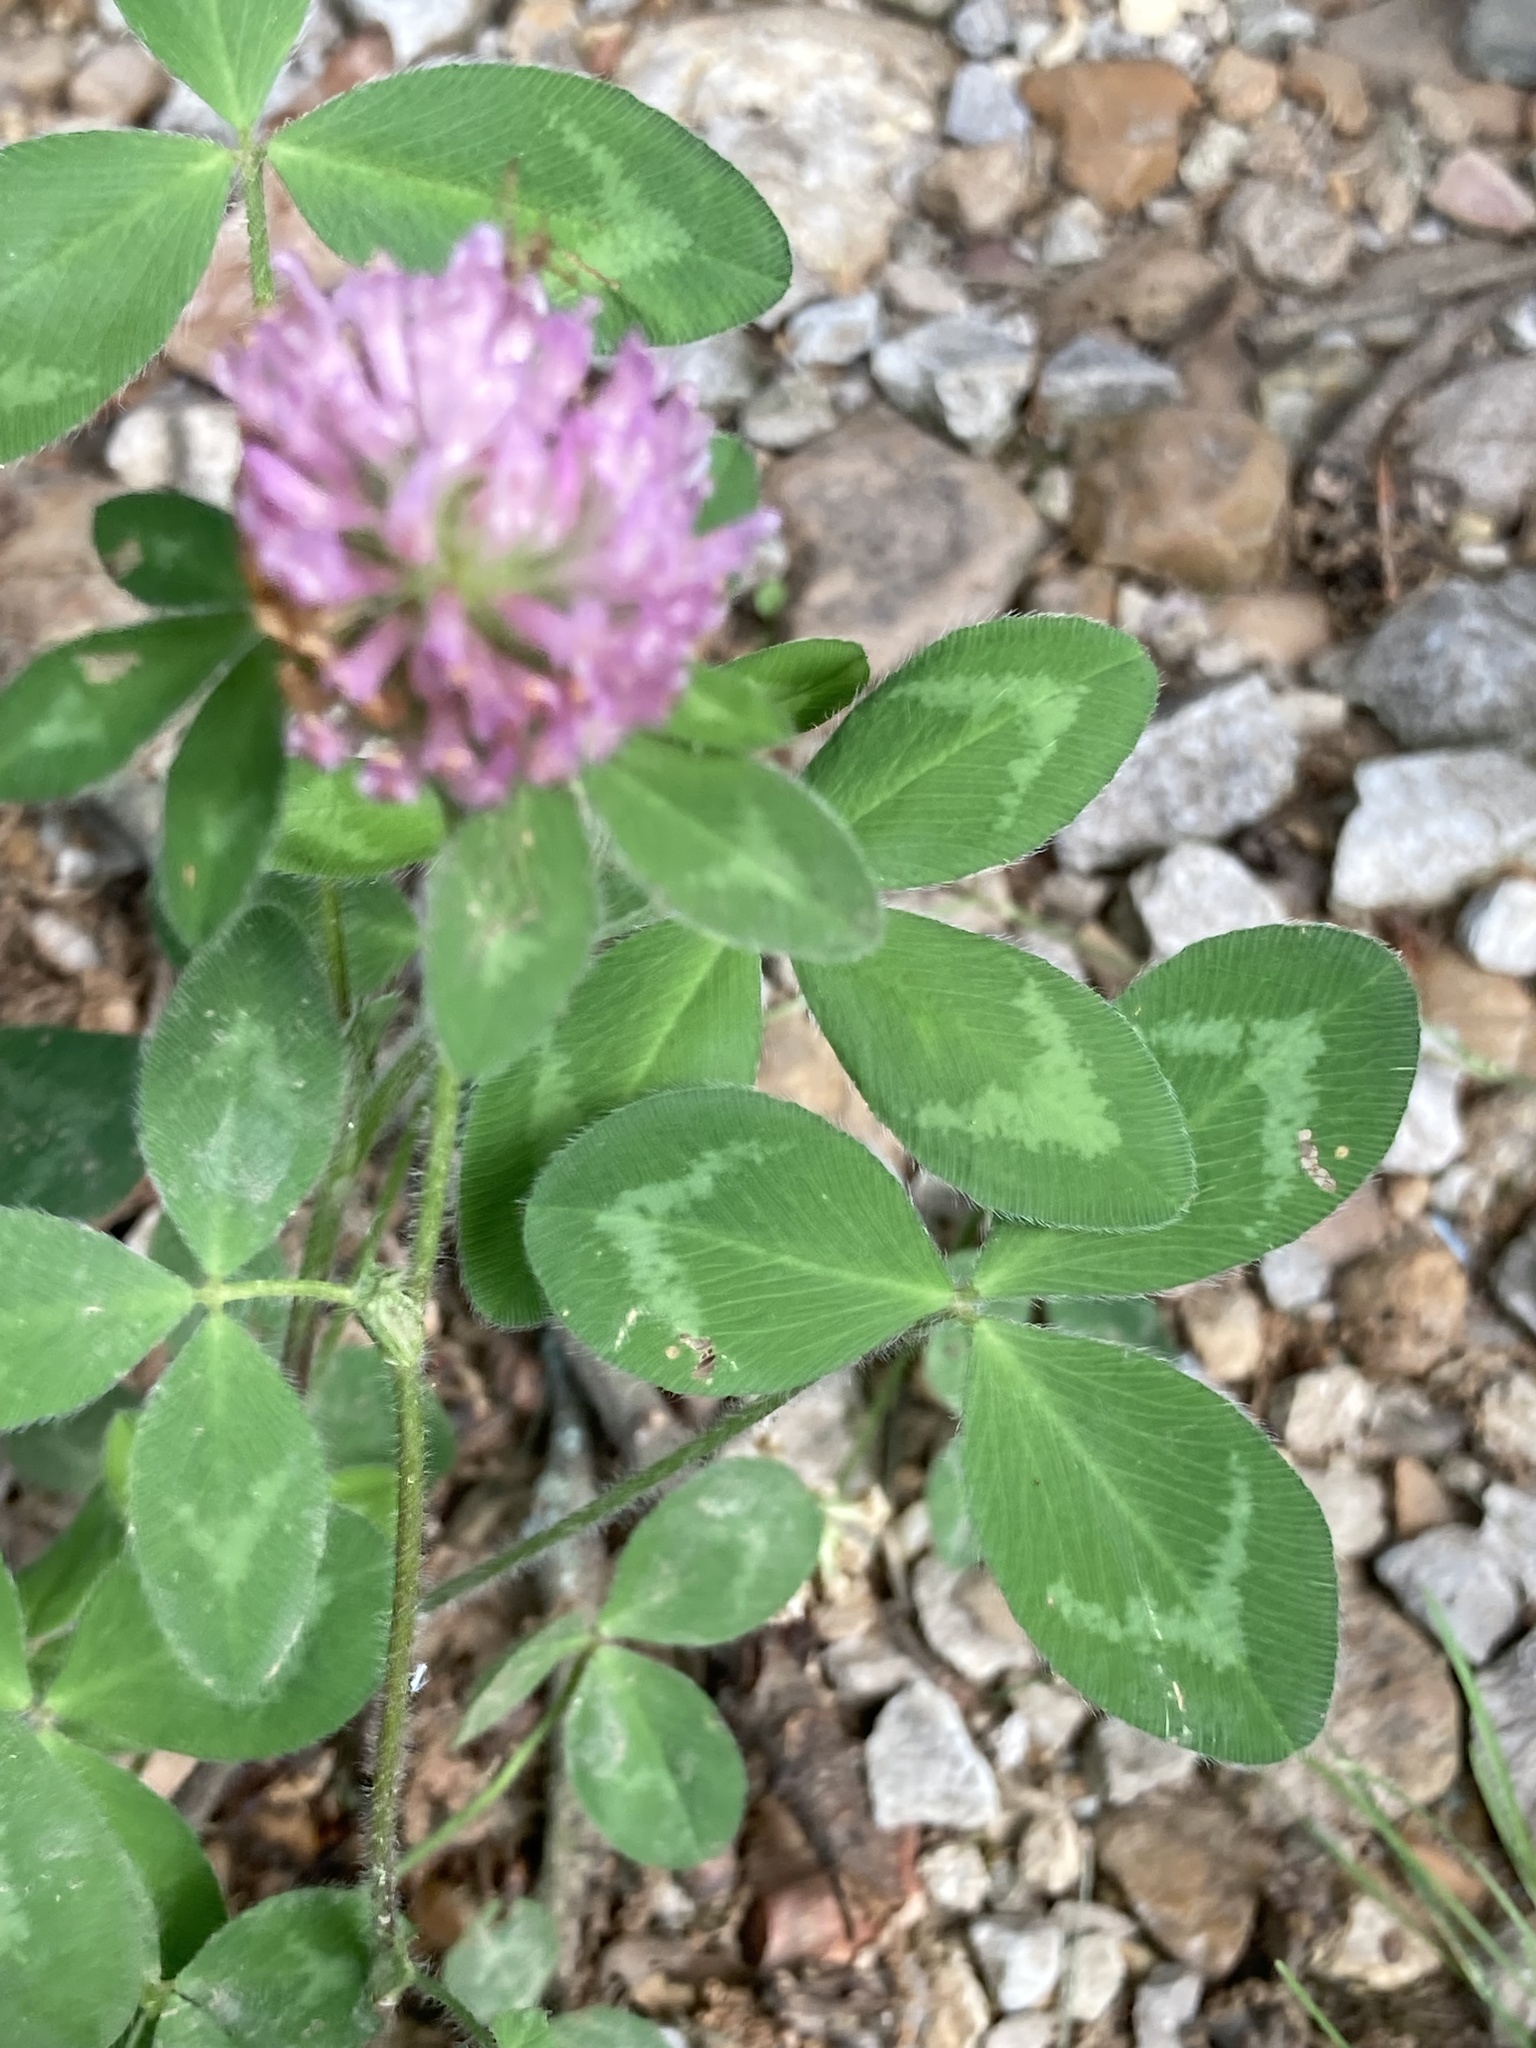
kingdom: Plantae
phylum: Tracheophyta
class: Magnoliopsida
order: Fabales
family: Fabaceae
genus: Trifolium
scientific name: Trifolium pratense
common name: Red clover
